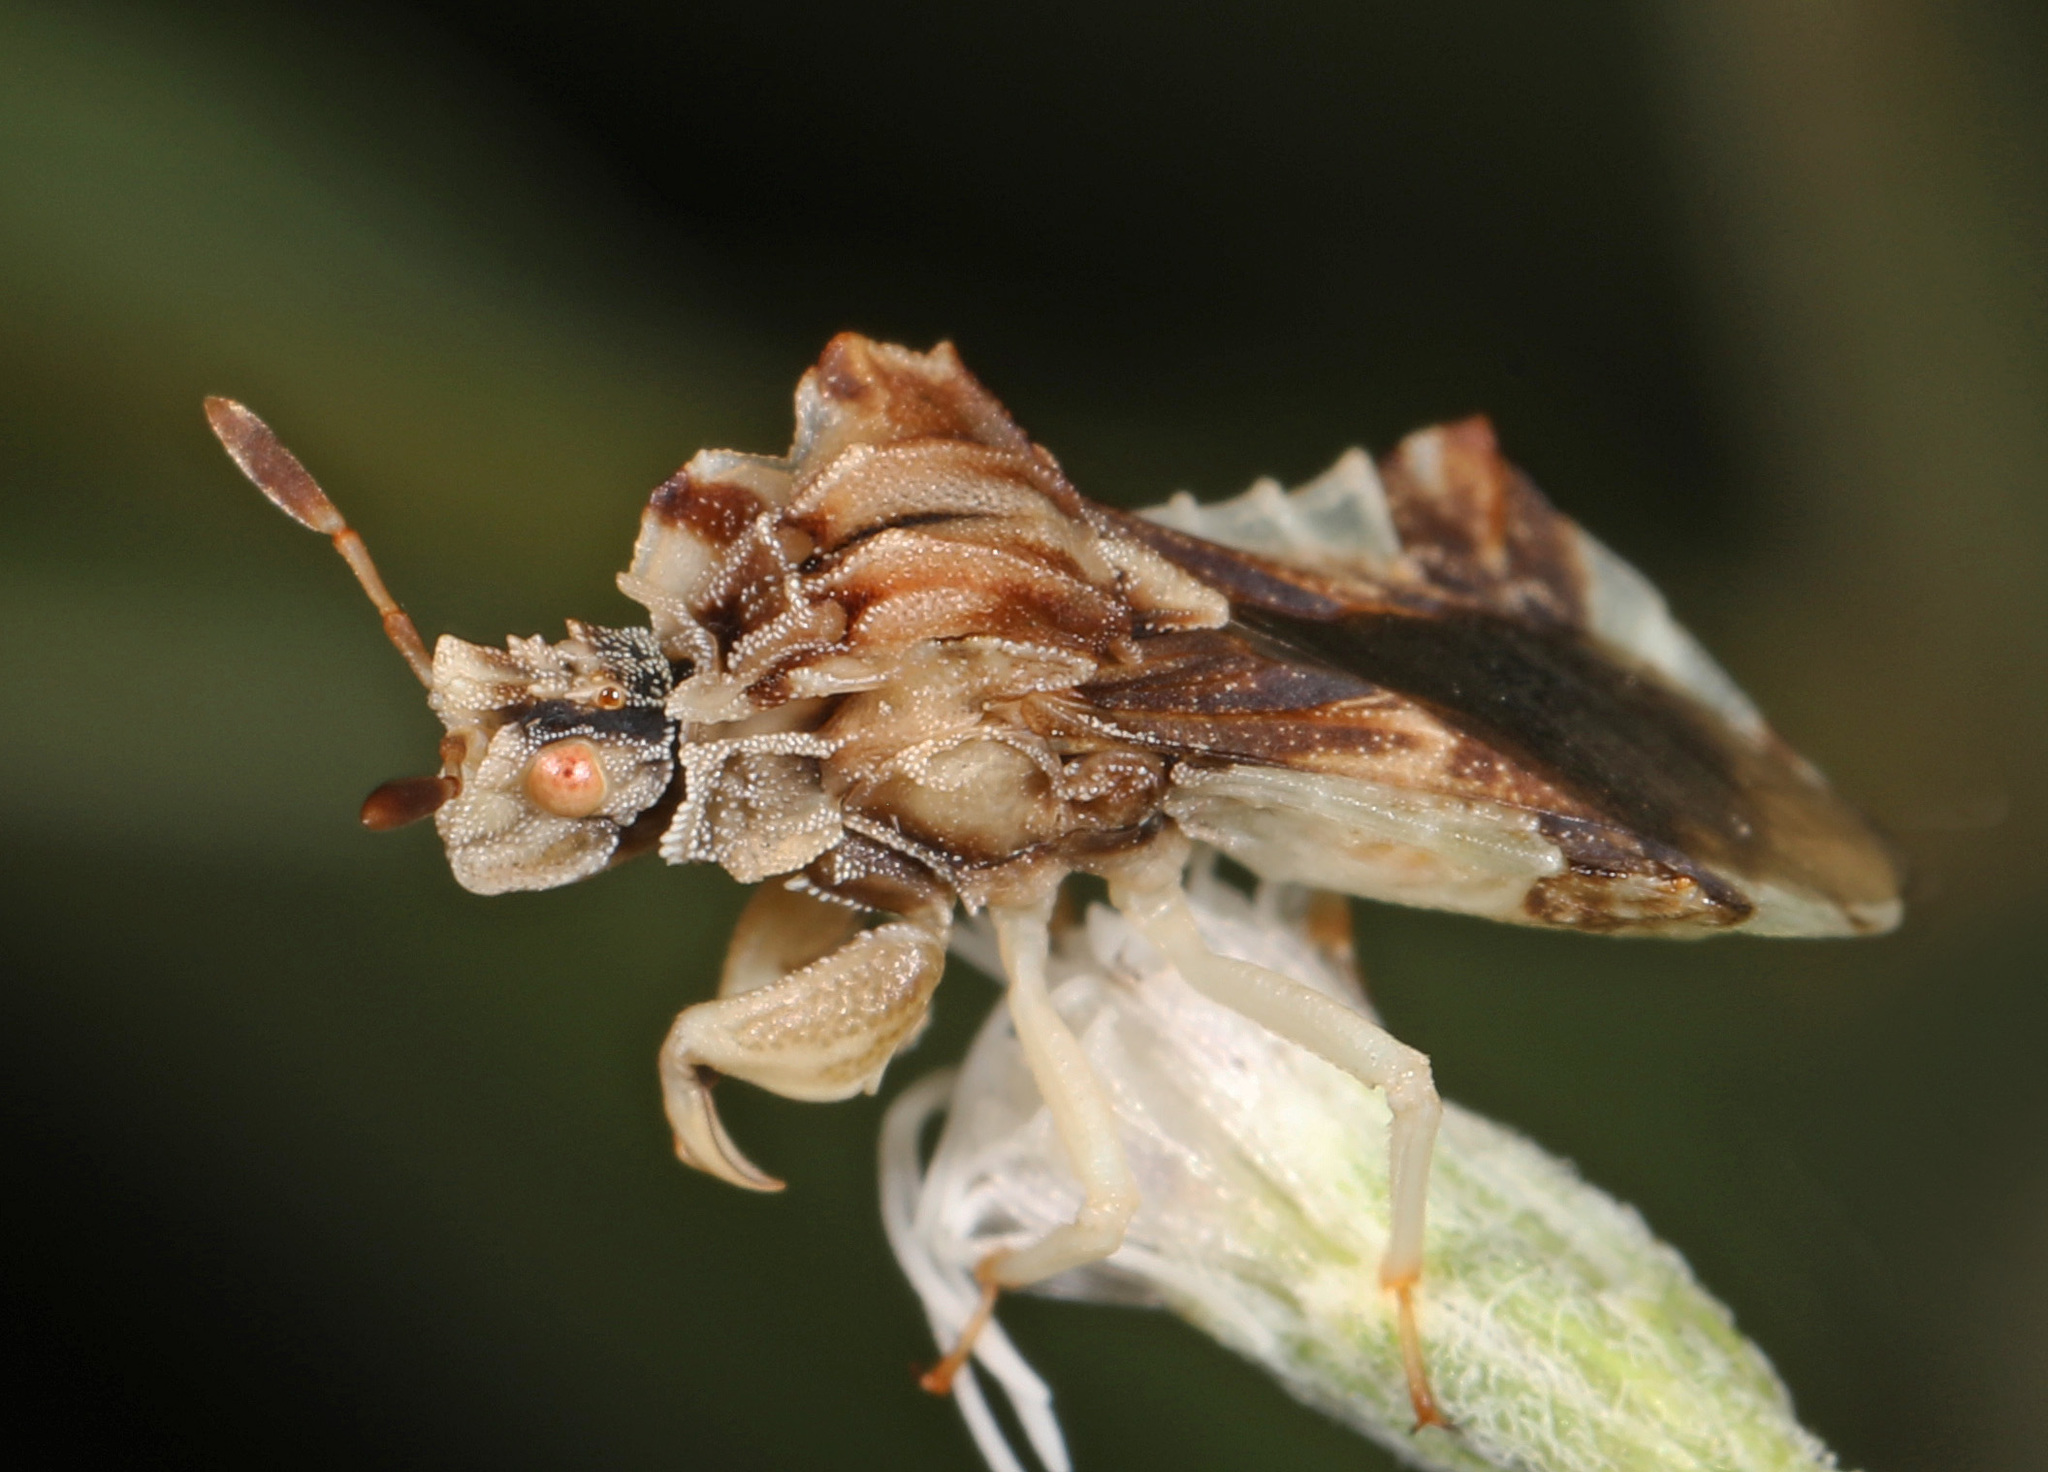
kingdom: Animalia
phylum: Arthropoda
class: Insecta
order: Hemiptera
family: Reduviidae
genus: Phymata
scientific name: Phymata fasciata
